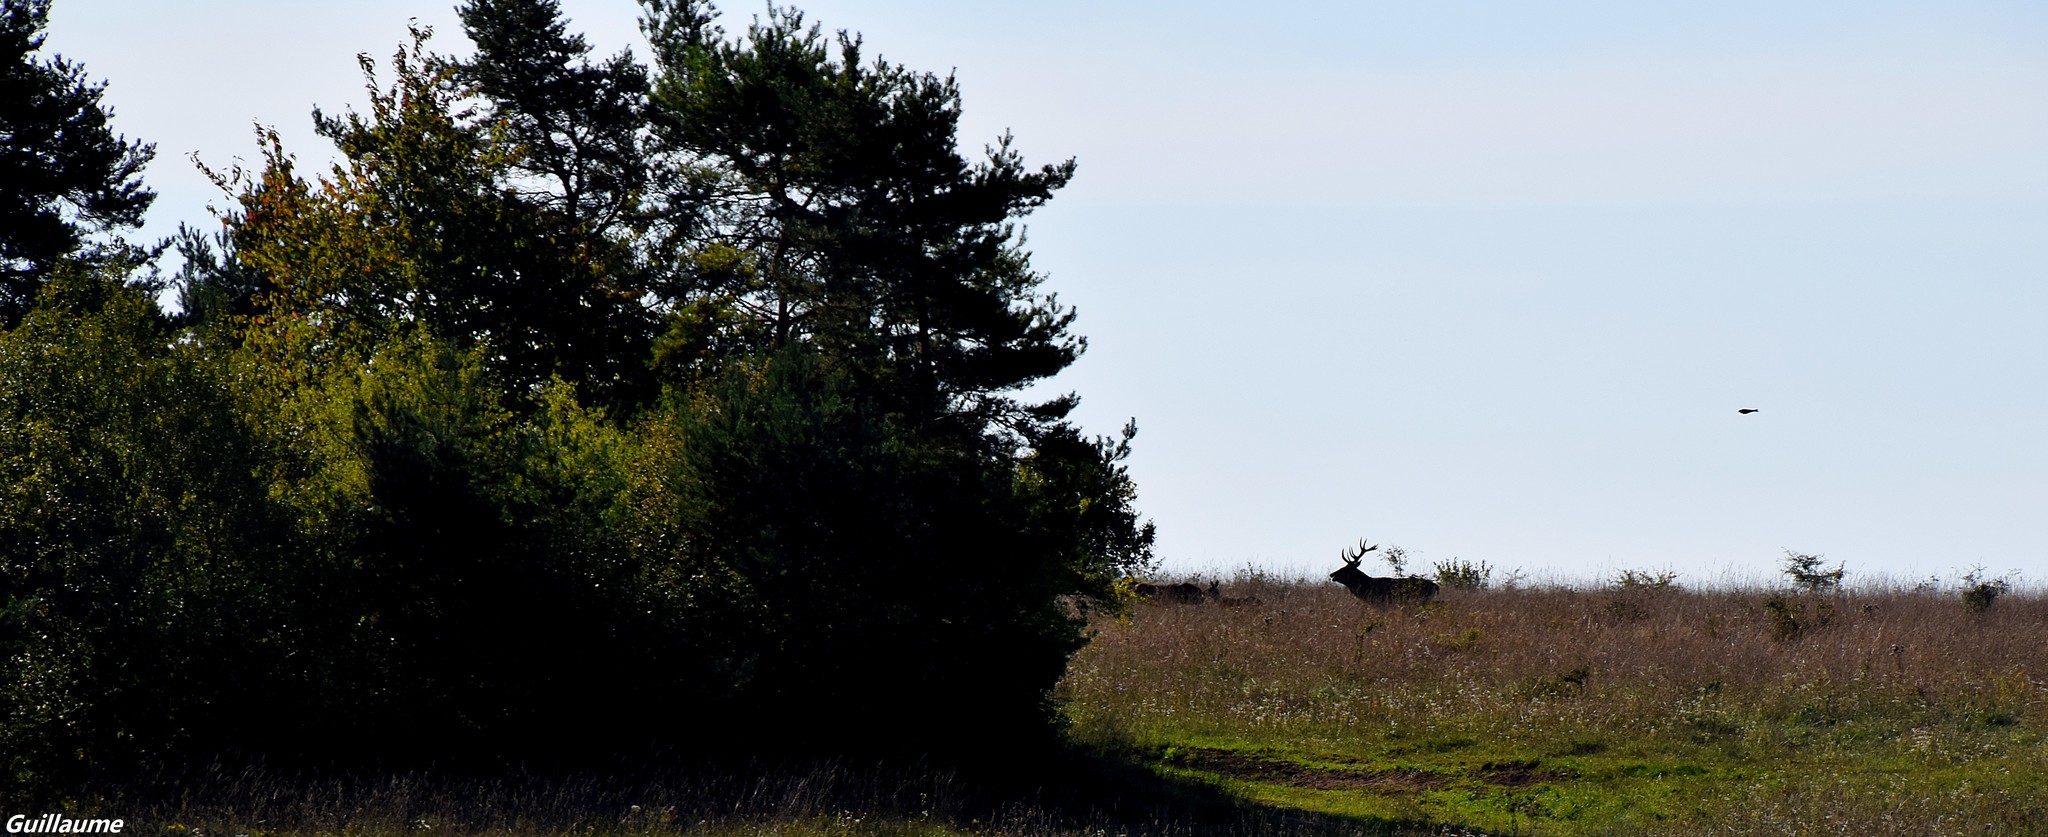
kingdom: Animalia
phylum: Chordata
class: Mammalia
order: Artiodactyla
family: Cervidae
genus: Cervus
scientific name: Cervus elaphus
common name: Red deer
